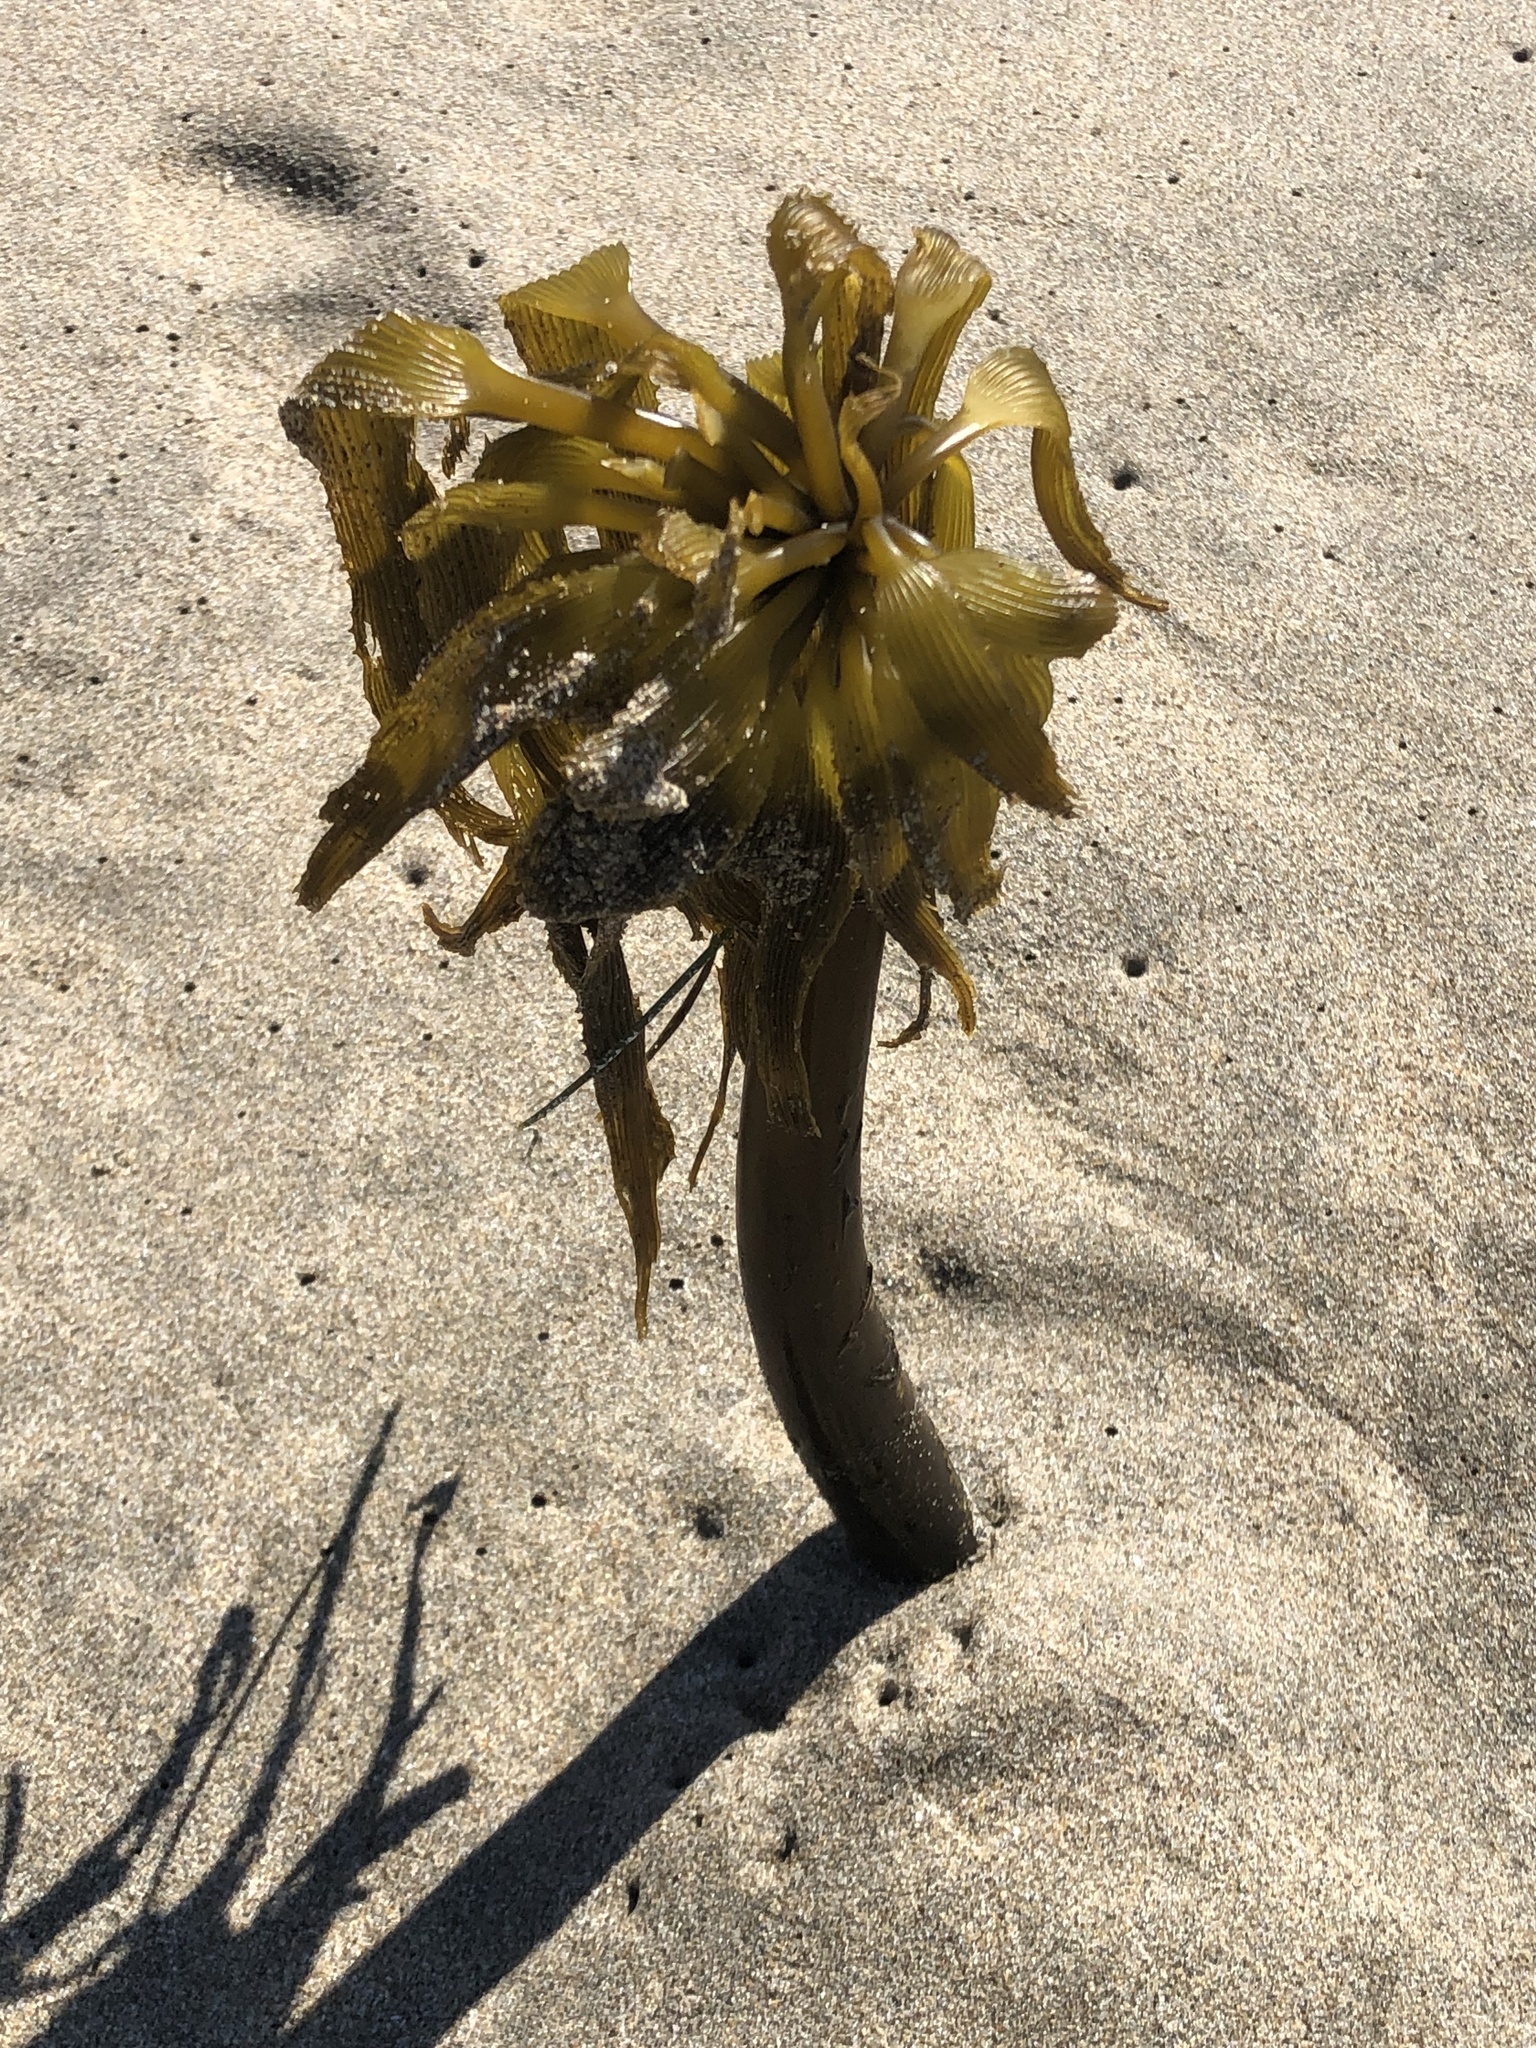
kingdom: Chromista
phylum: Ochrophyta
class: Phaeophyceae
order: Laminariales
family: Laminariaceae
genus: Postelsia
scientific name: Postelsia palmiformis
